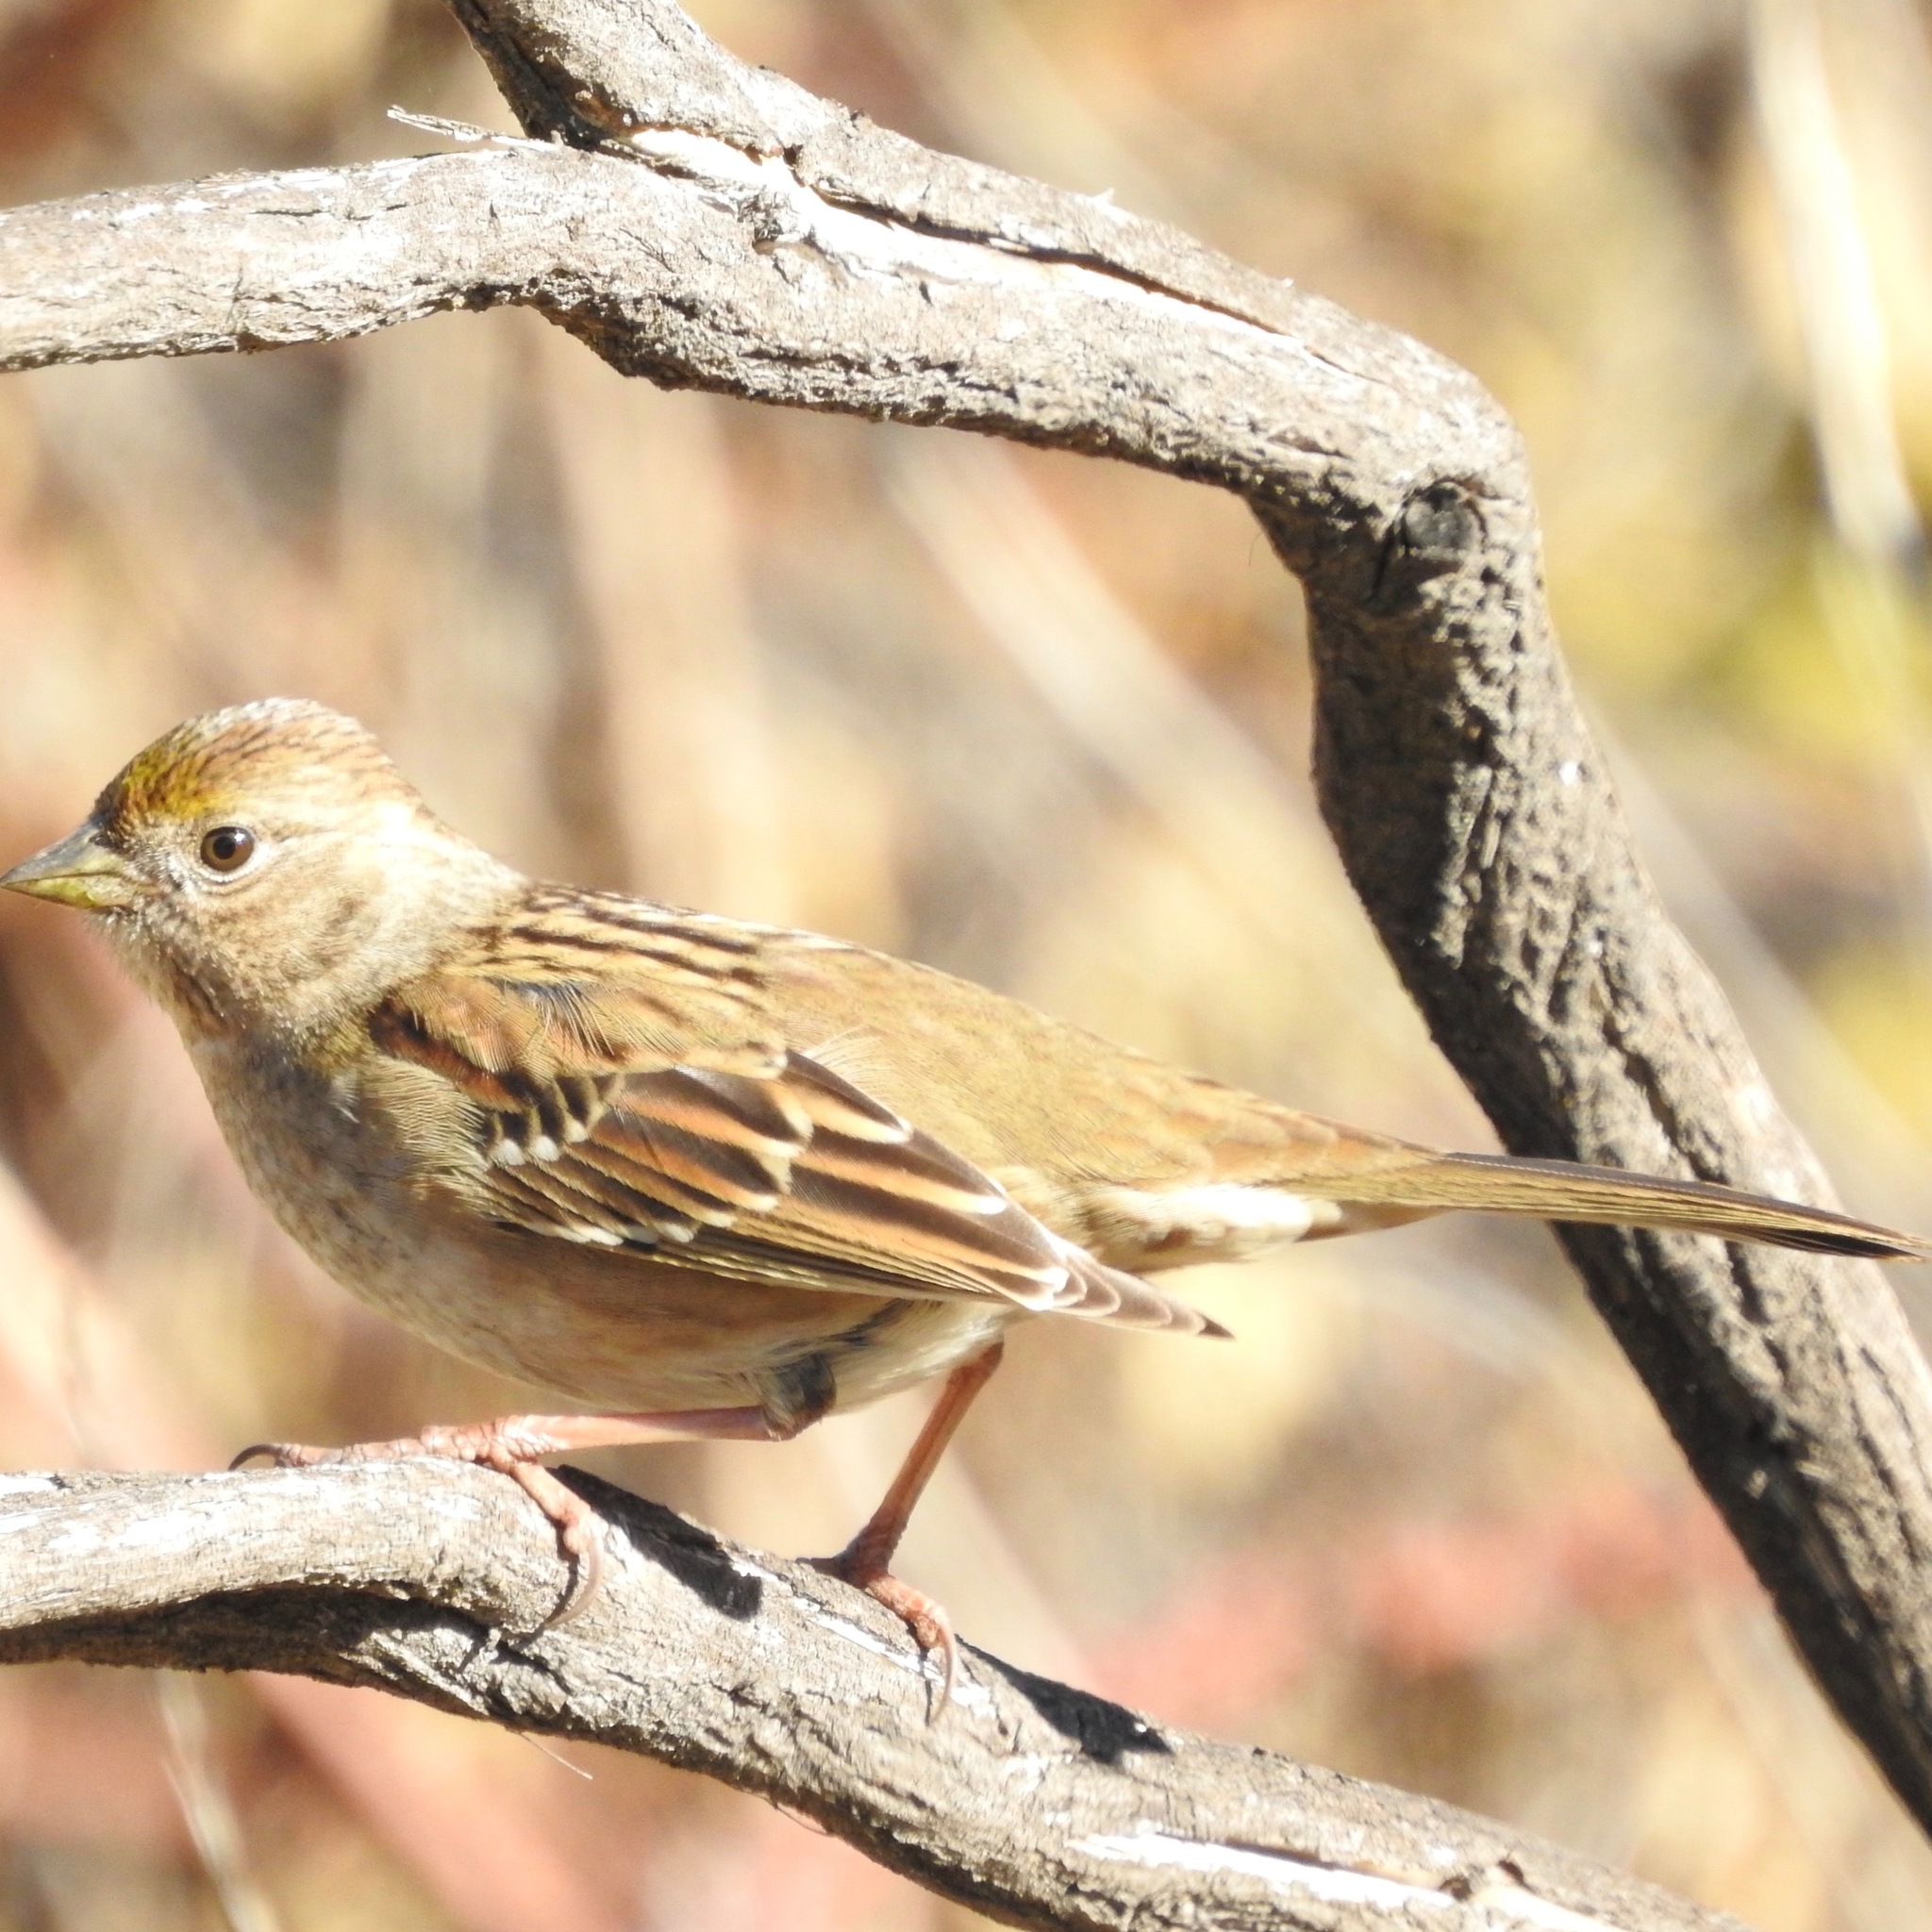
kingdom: Animalia
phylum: Chordata
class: Aves
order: Passeriformes
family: Passerellidae
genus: Zonotrichia
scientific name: Zonotrichia atricapilla
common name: Golden-crowned sparrow
